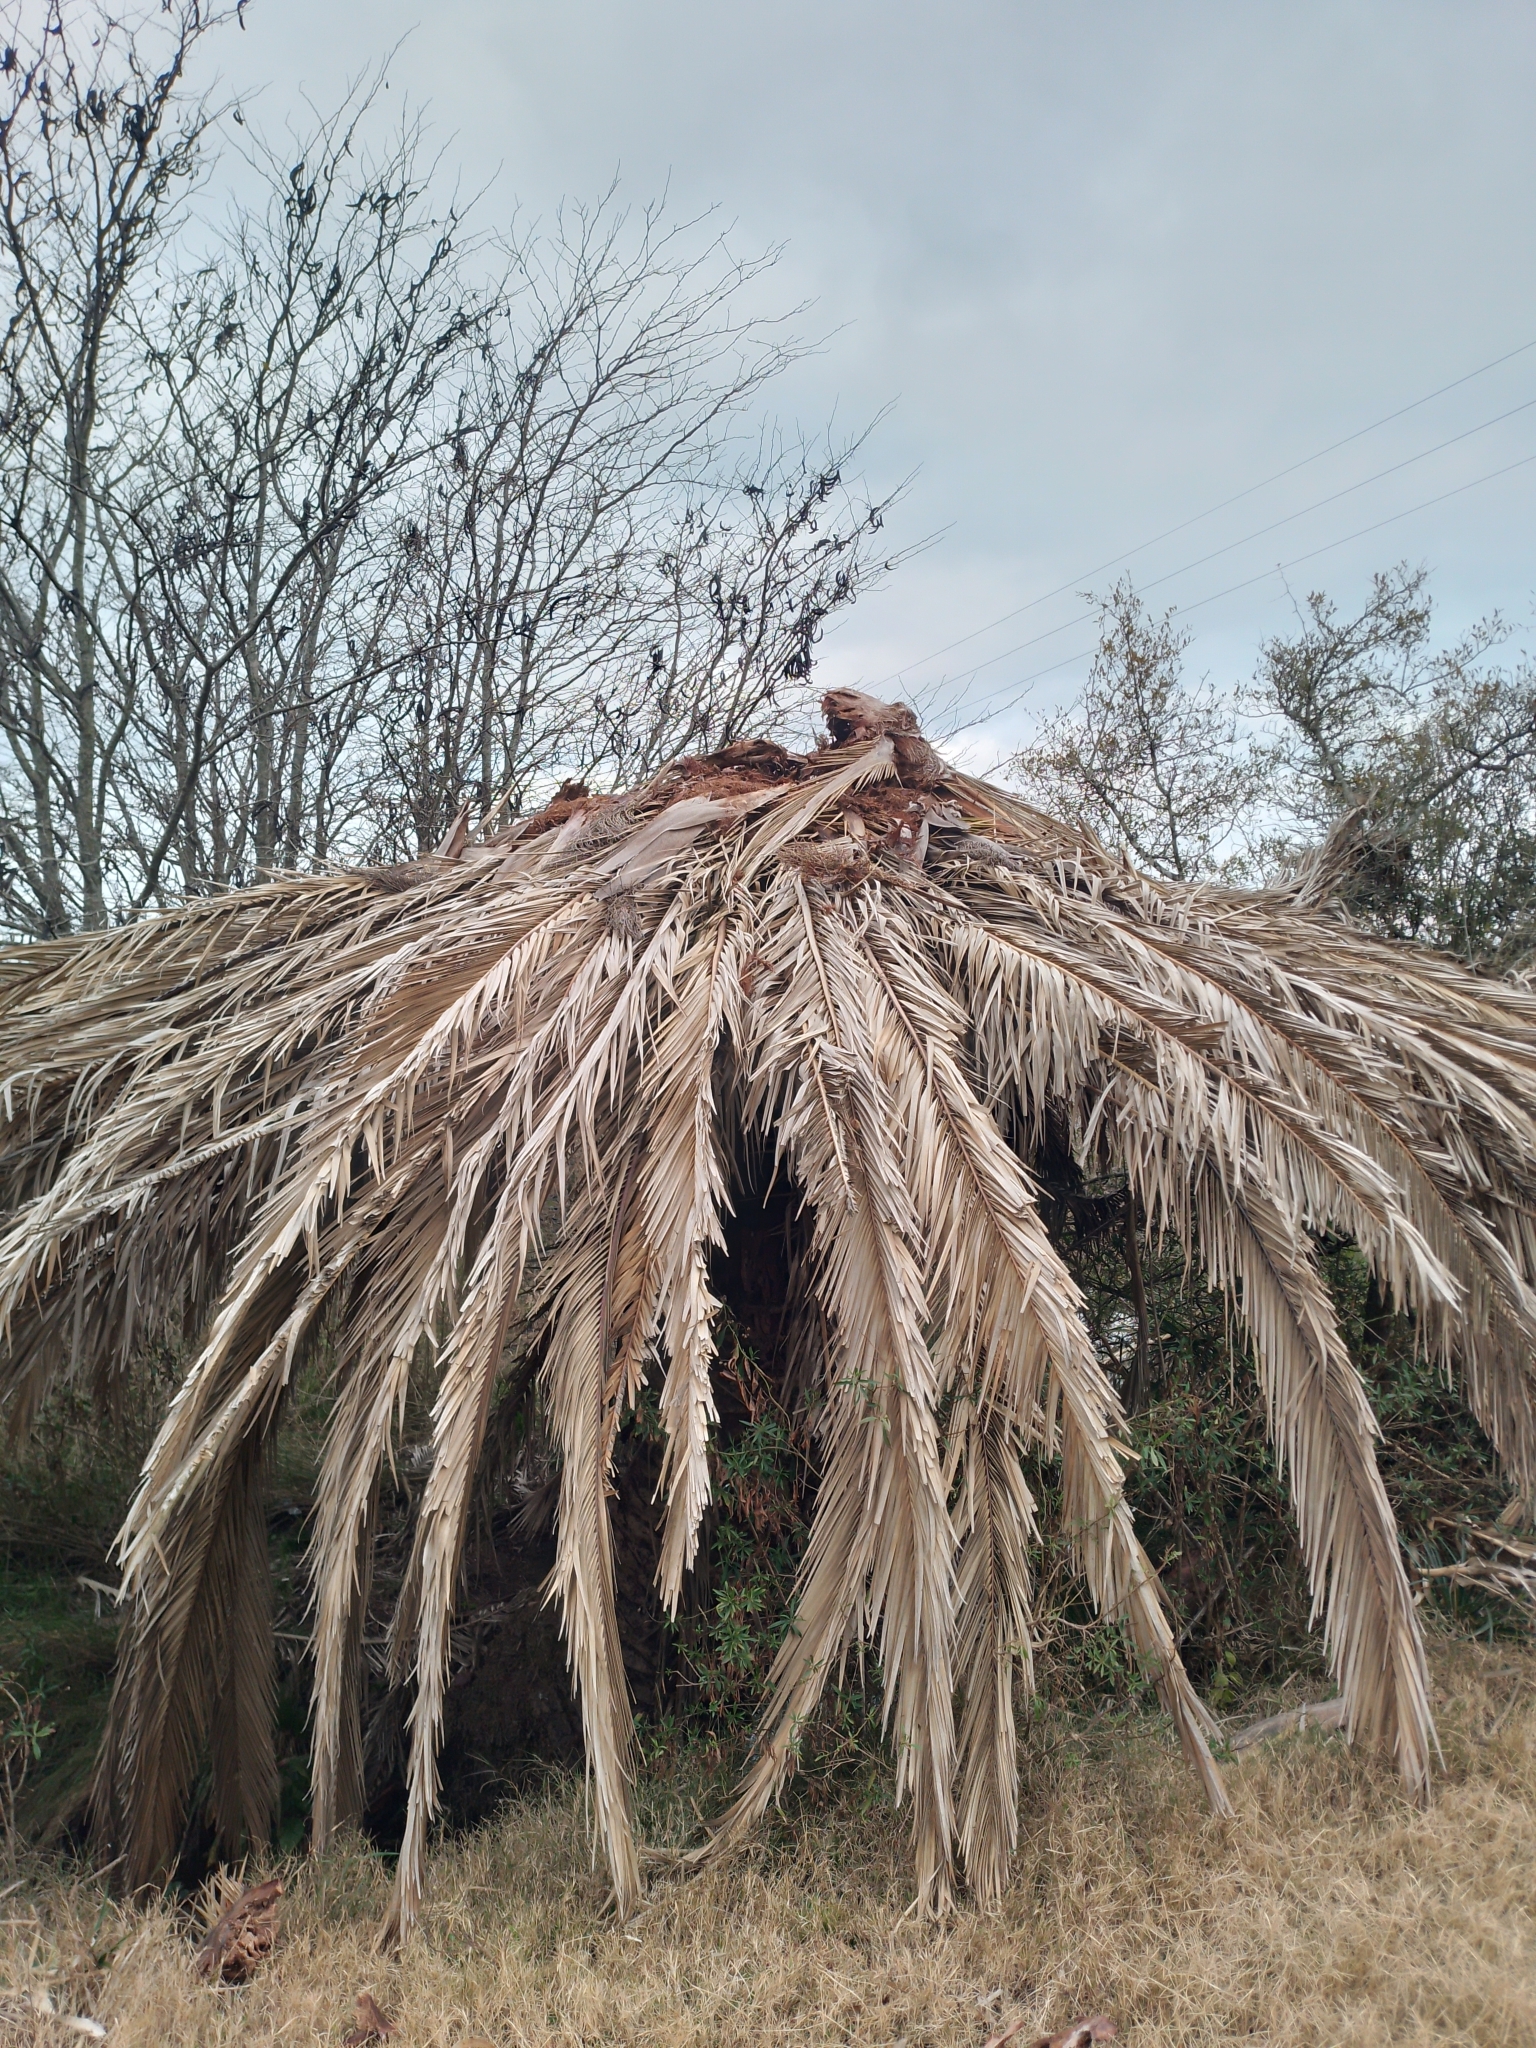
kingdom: Plantae
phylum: Tracheophyta
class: Liliopsida
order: Arecales
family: Arecaceae
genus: Phoenix
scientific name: Phoenix canariensis
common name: Canary island date palm
